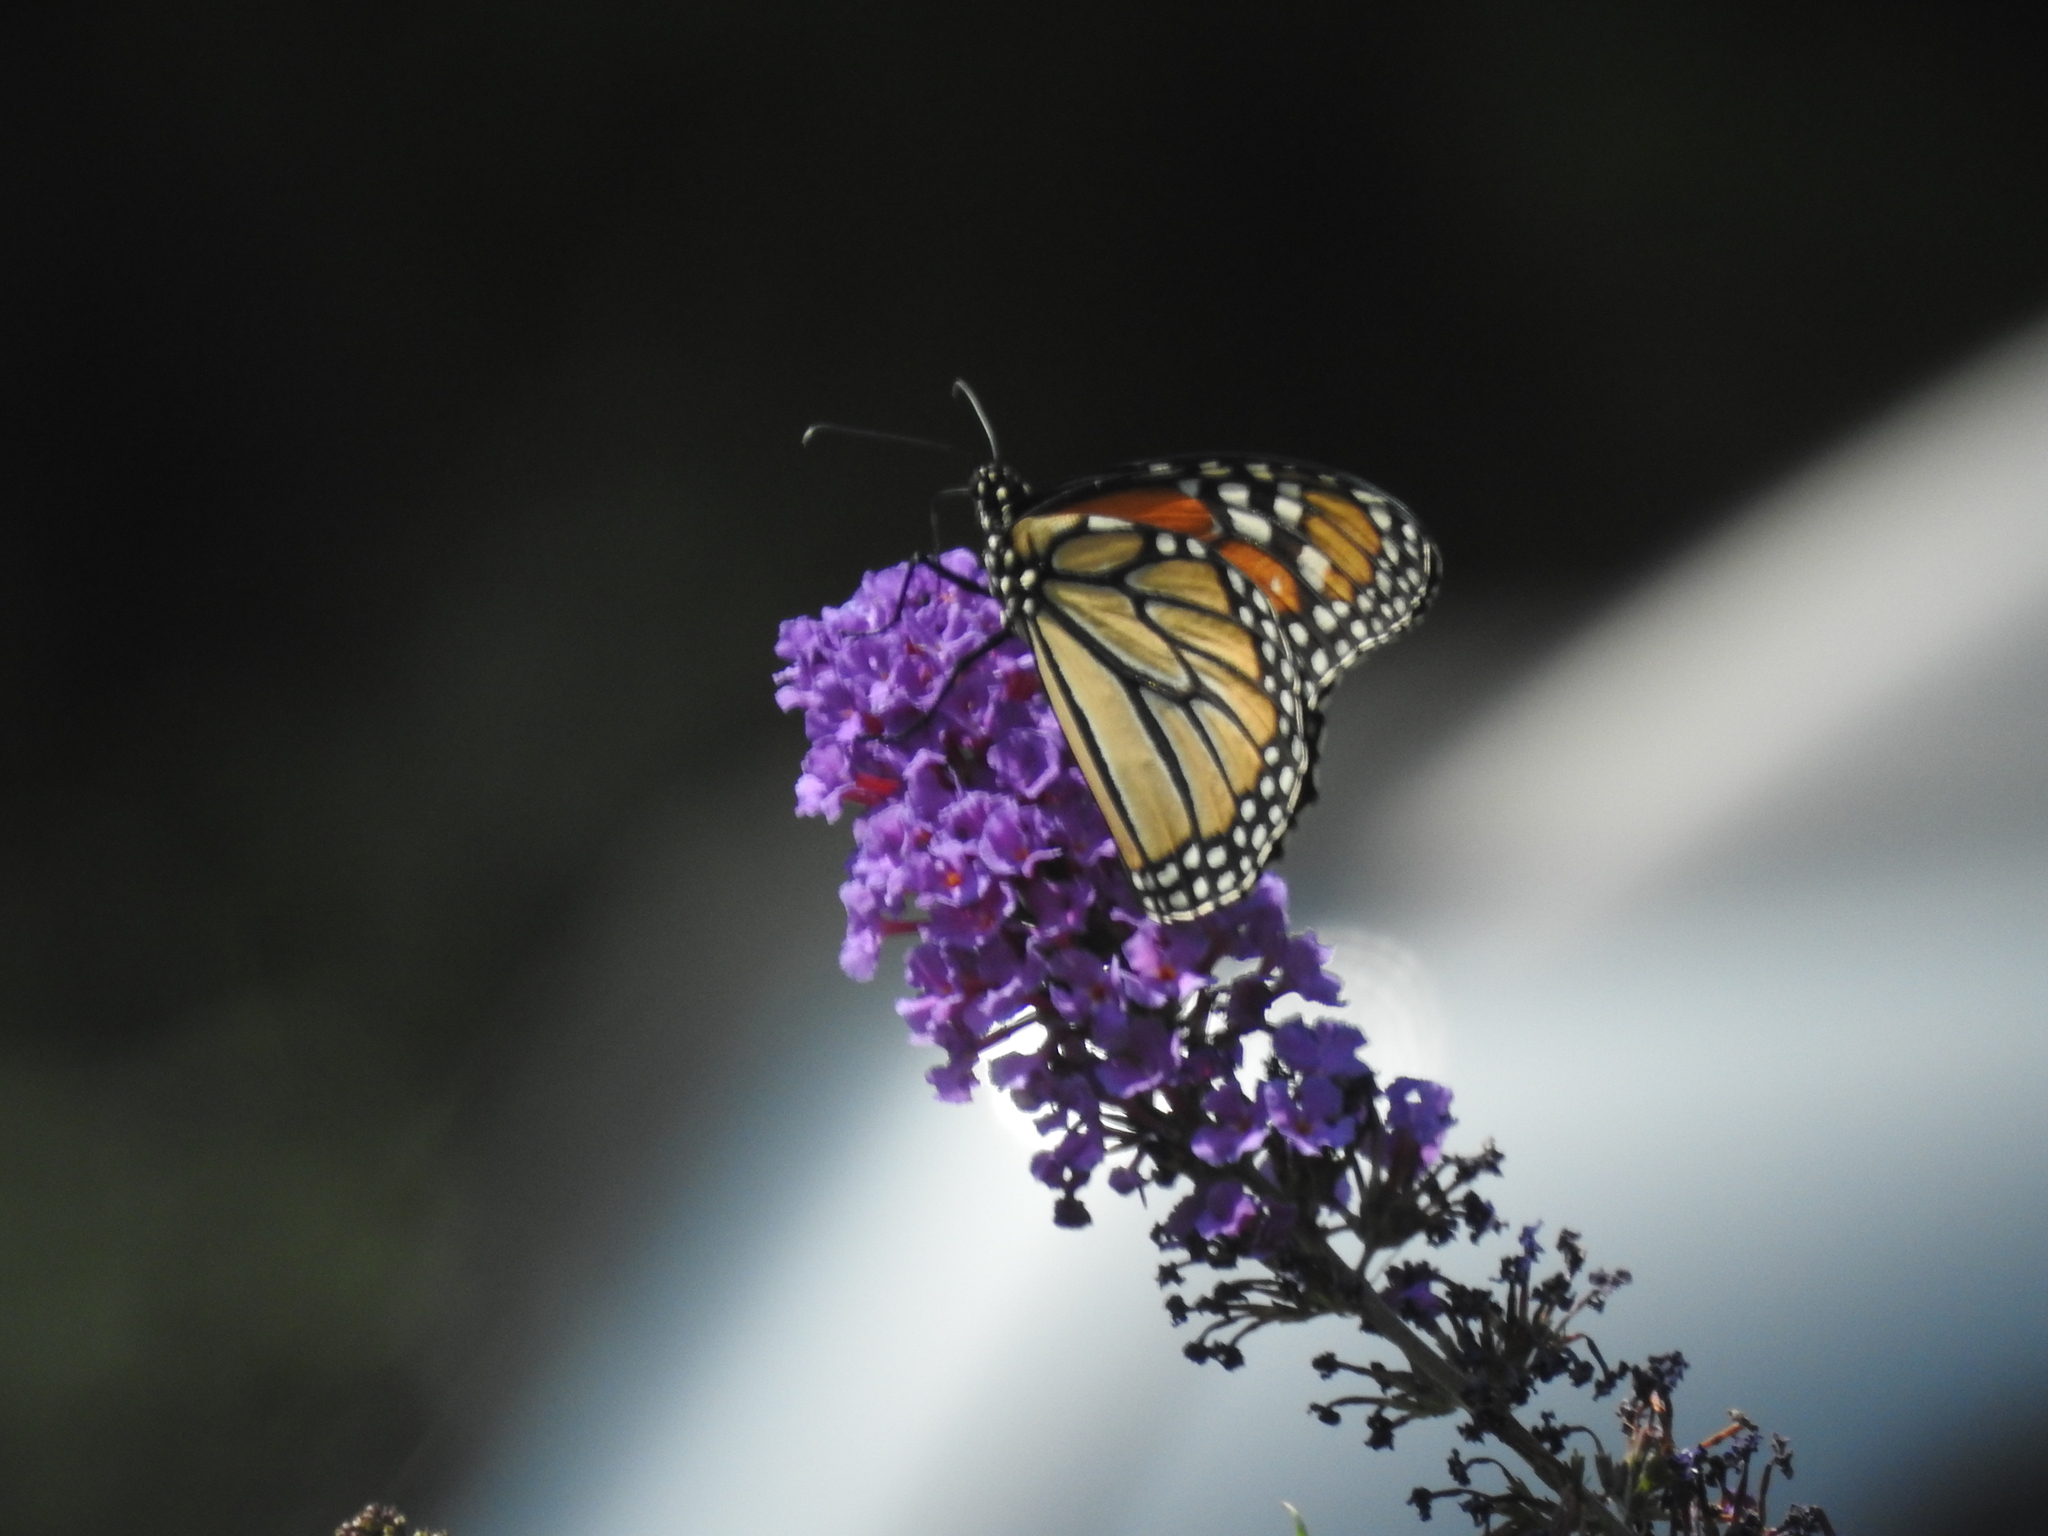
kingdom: Animalia
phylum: Arthropoda
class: Insecta
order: Lepidoptera
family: Nymphalidae
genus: Danaus
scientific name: Danaus plexippus
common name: Monarch
